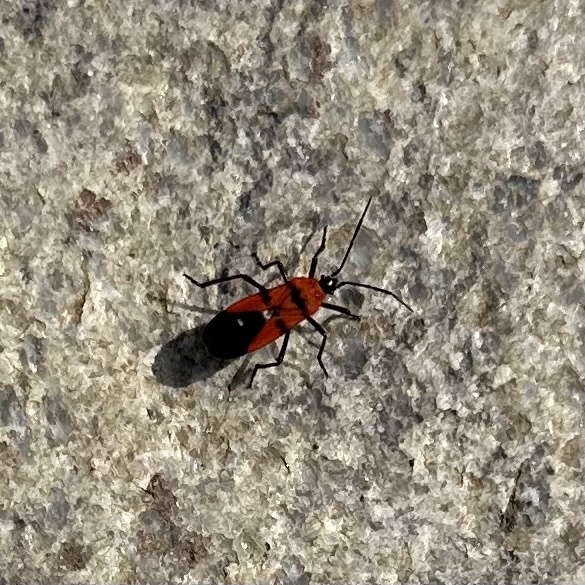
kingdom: Animalia
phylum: Arthropoda
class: Insecta
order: Hemiptera
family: Lygaeidae
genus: Oncopeltus
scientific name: Oncopeltus nigriceps
